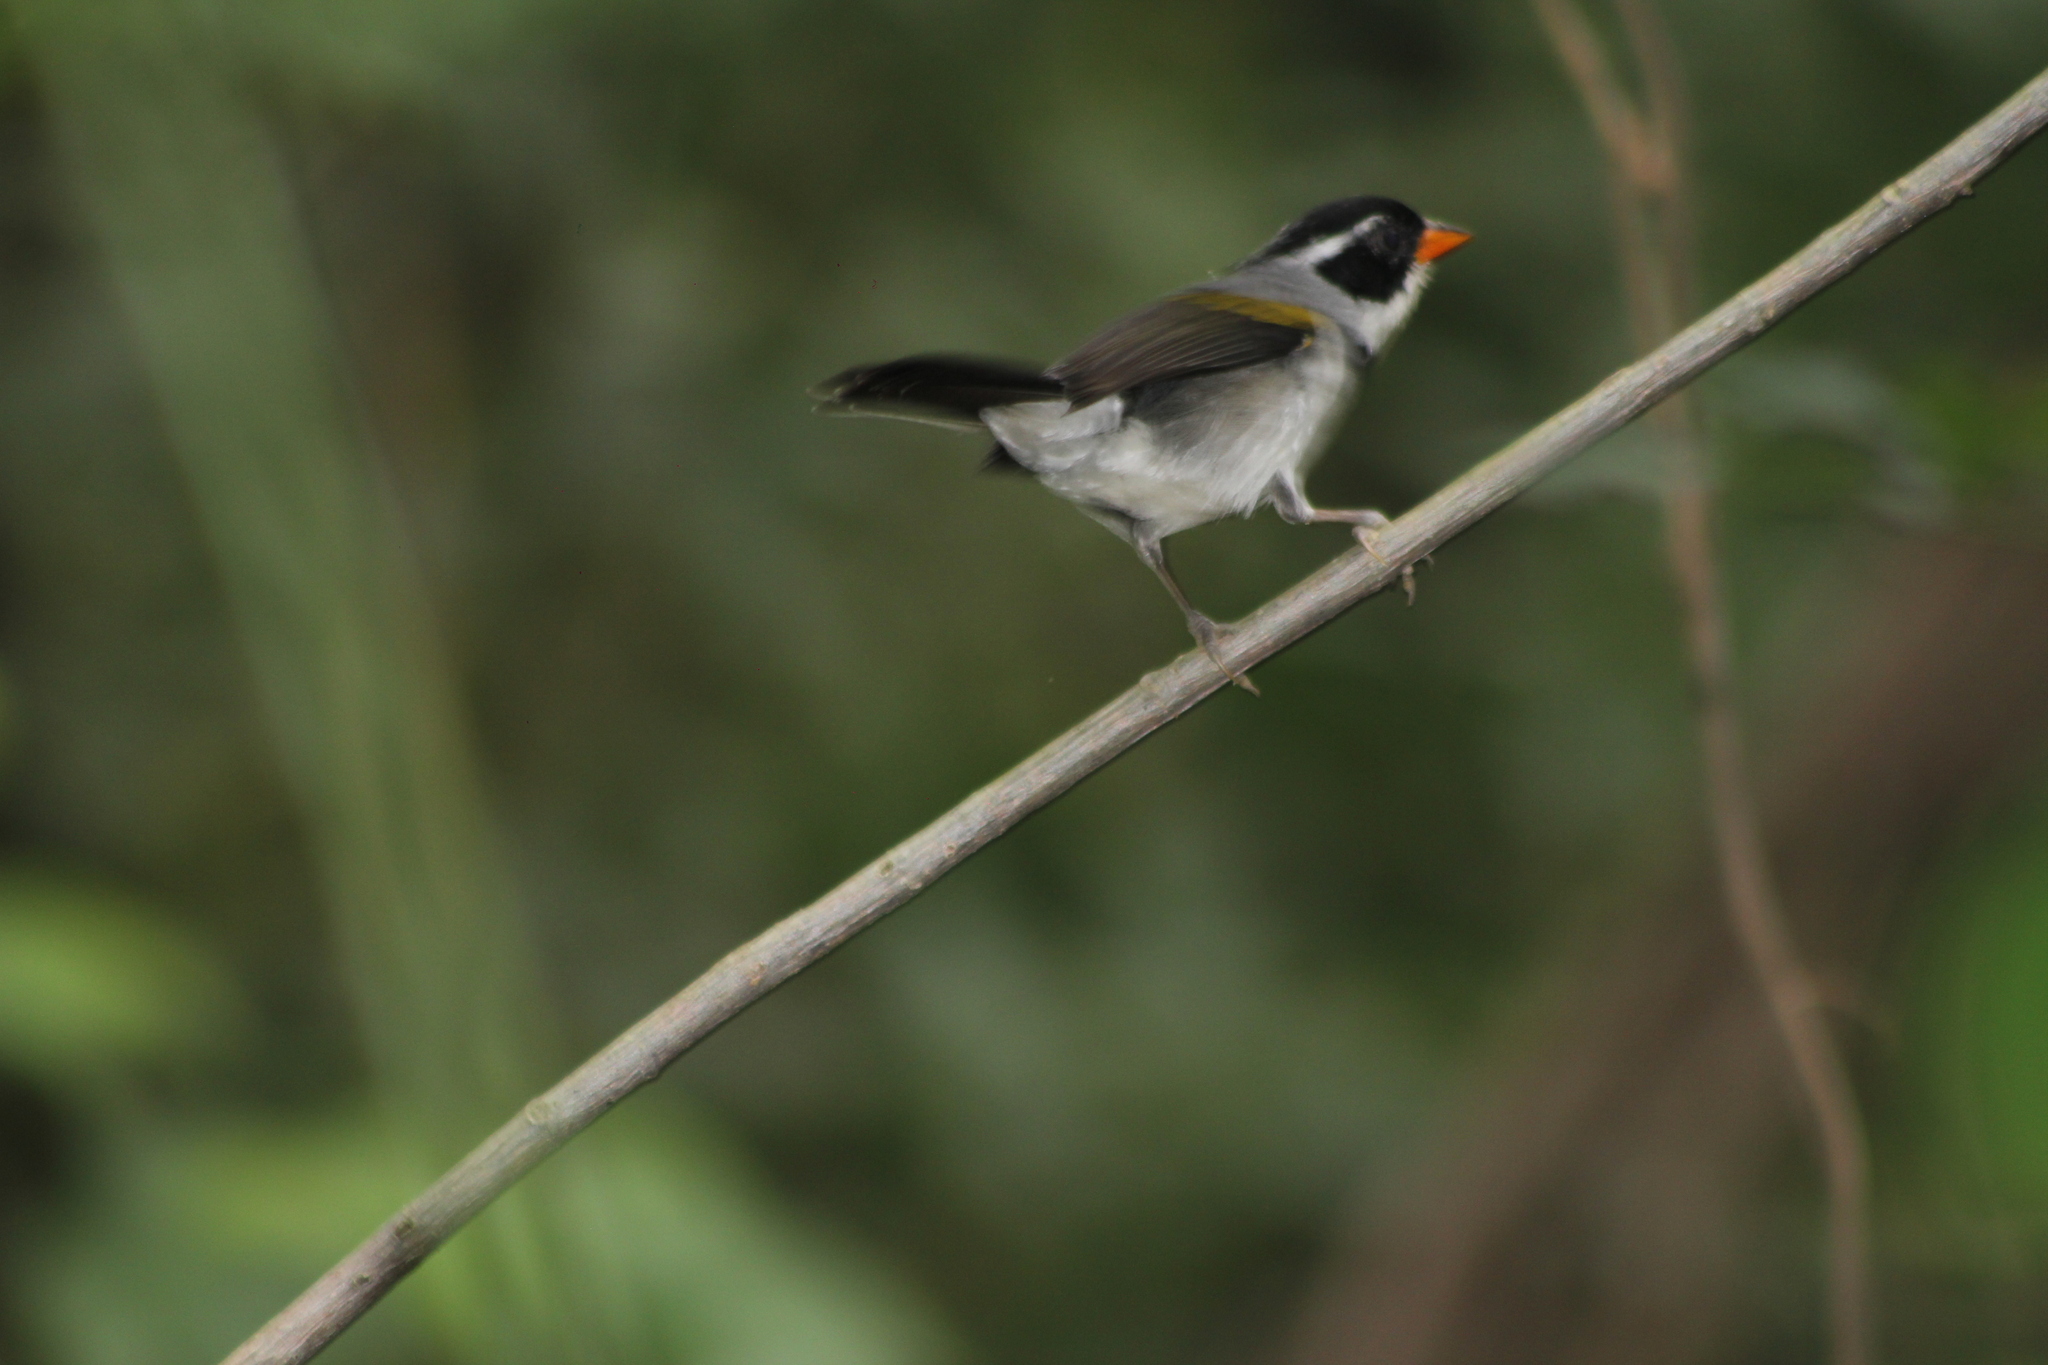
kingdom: Animalia
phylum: Chordata
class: Aves
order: Passeriformes
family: Passerellidae
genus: Arremon
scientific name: Arremon flavirostris
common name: Saffron-billed sparrow
